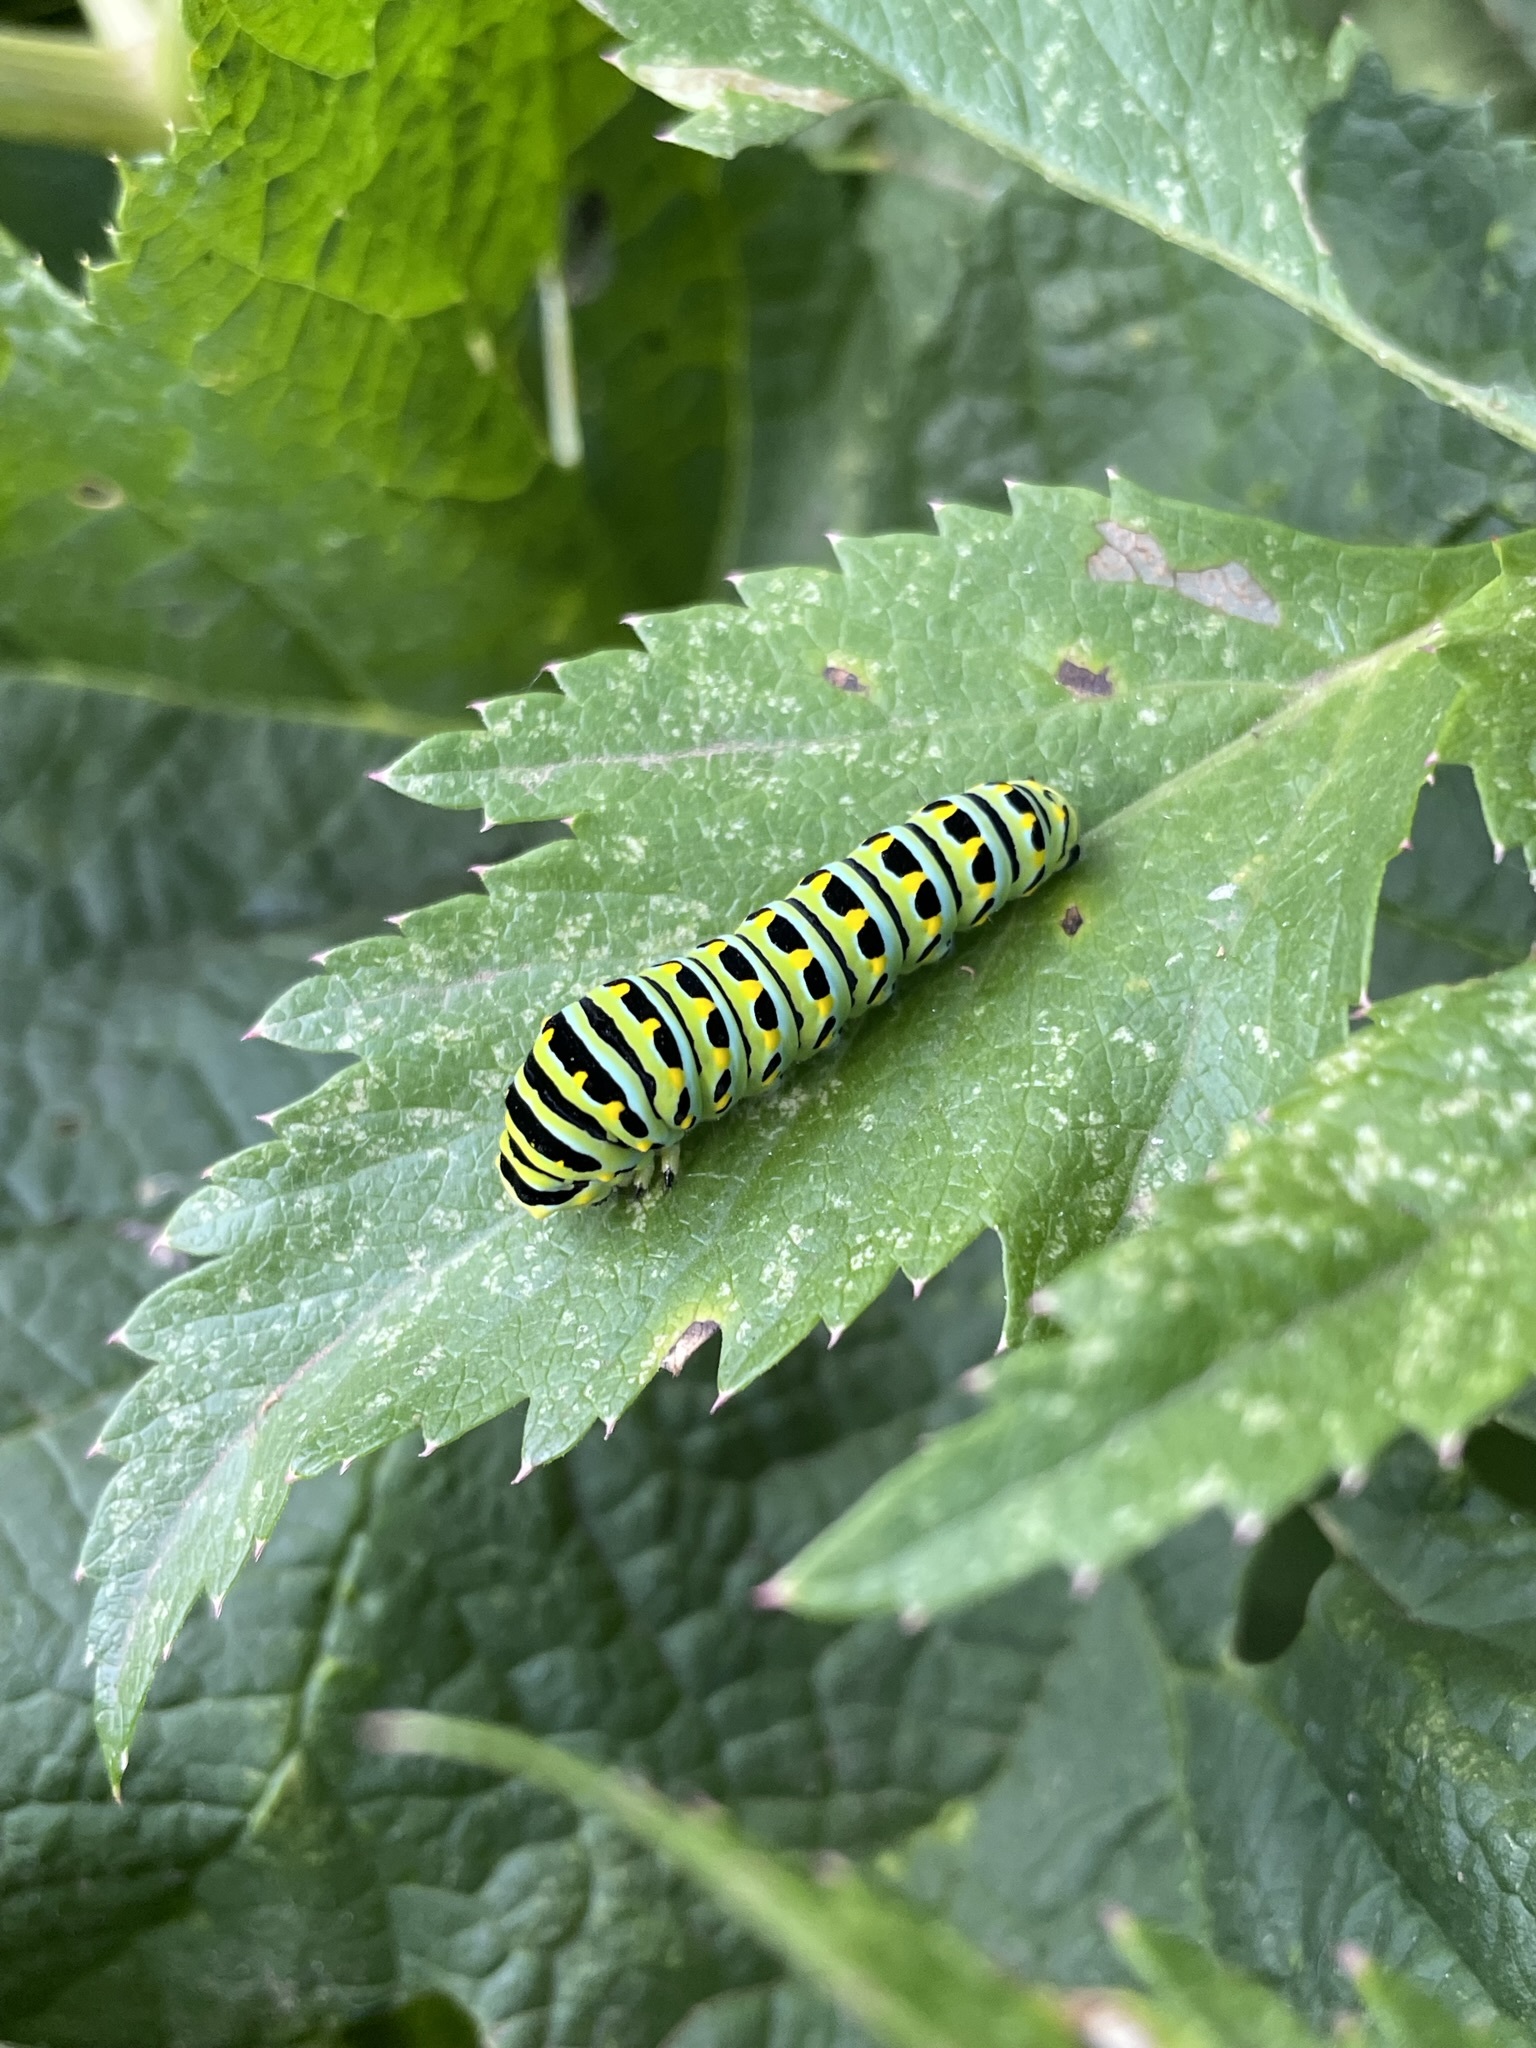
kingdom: Animalia
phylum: Arthropoda
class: Insecta
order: Lepidoptera
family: Papilionidae
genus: Papilio
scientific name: Papilio zelicaon
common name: Anise swallowtail
